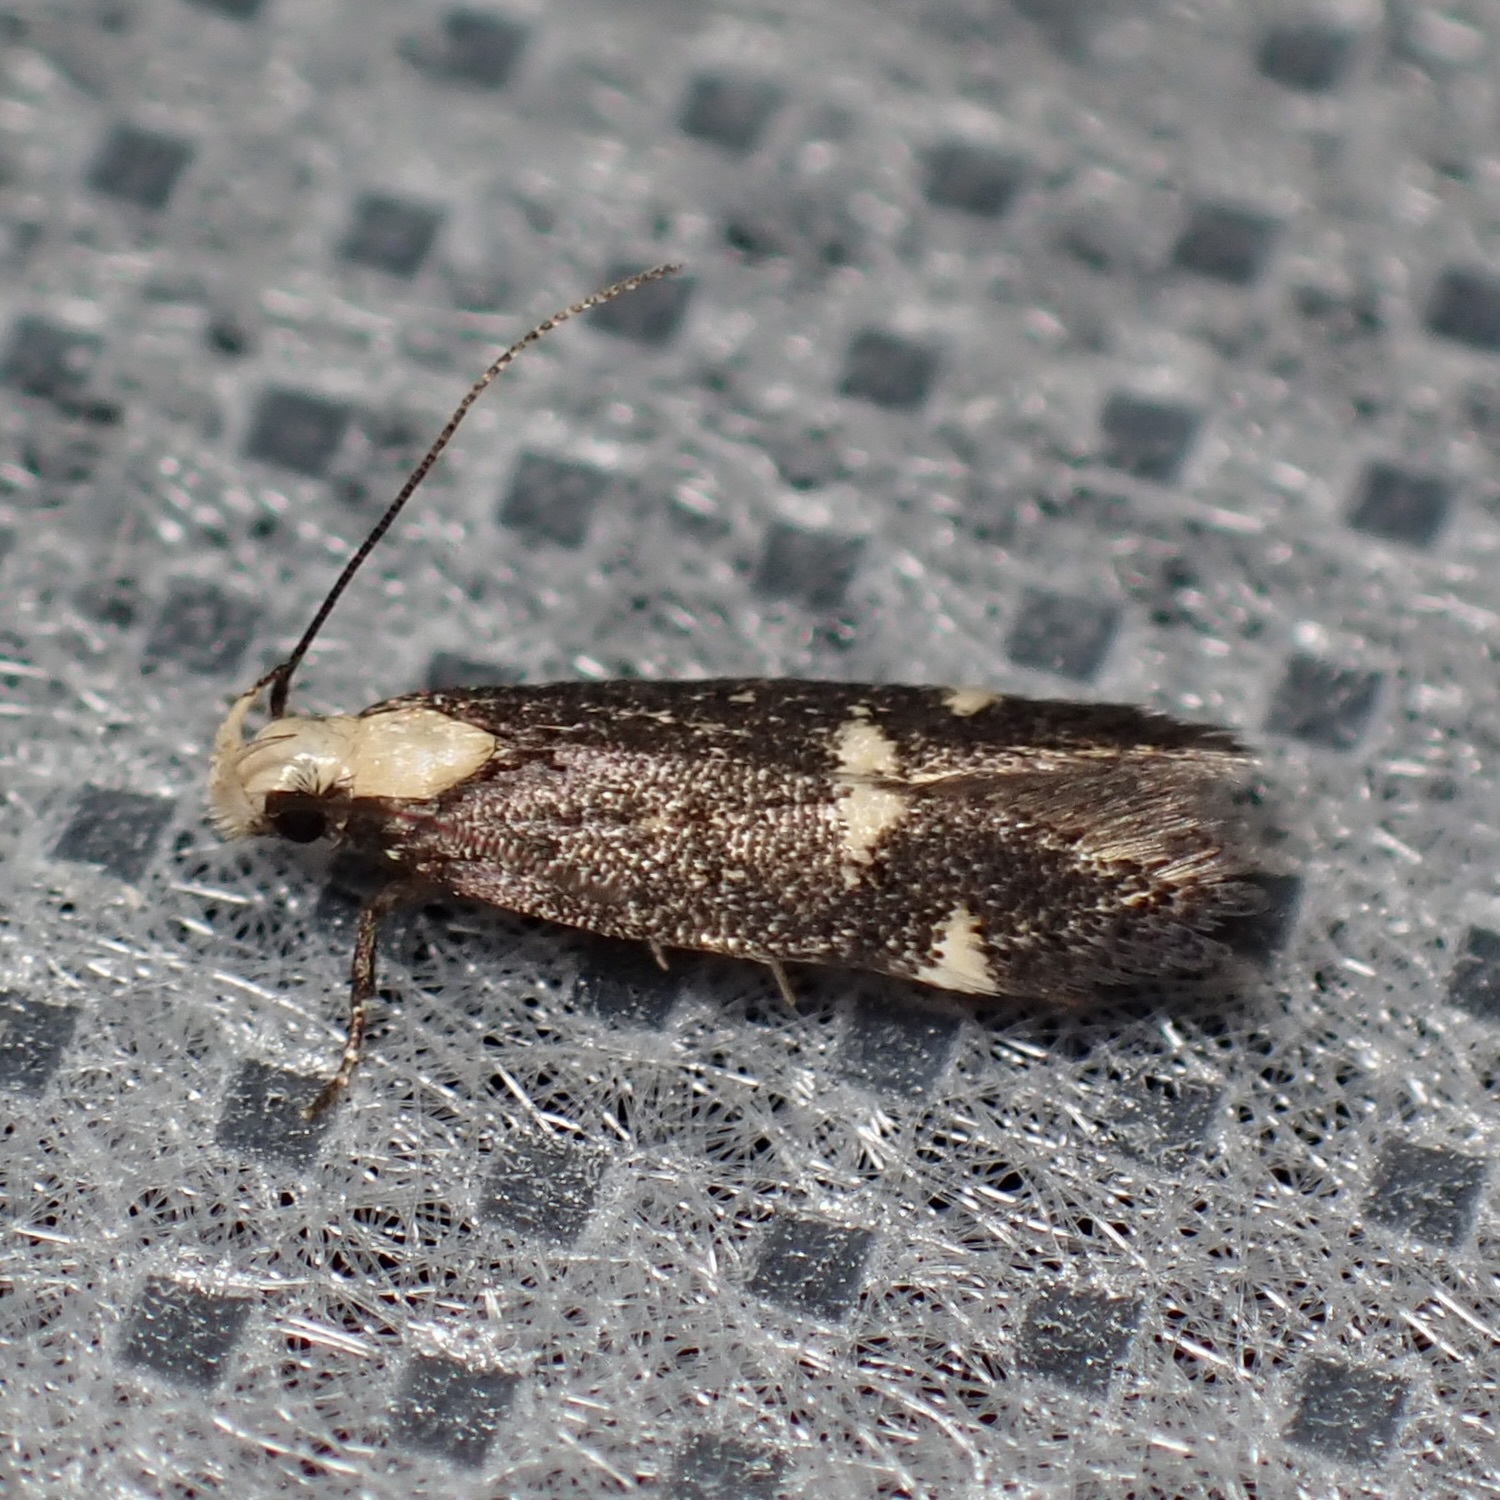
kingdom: Animalia
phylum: Arthropoda
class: Insecta
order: Lepidoptera
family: Gelechiidae
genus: Chionodes
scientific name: Chionodes phalacra
